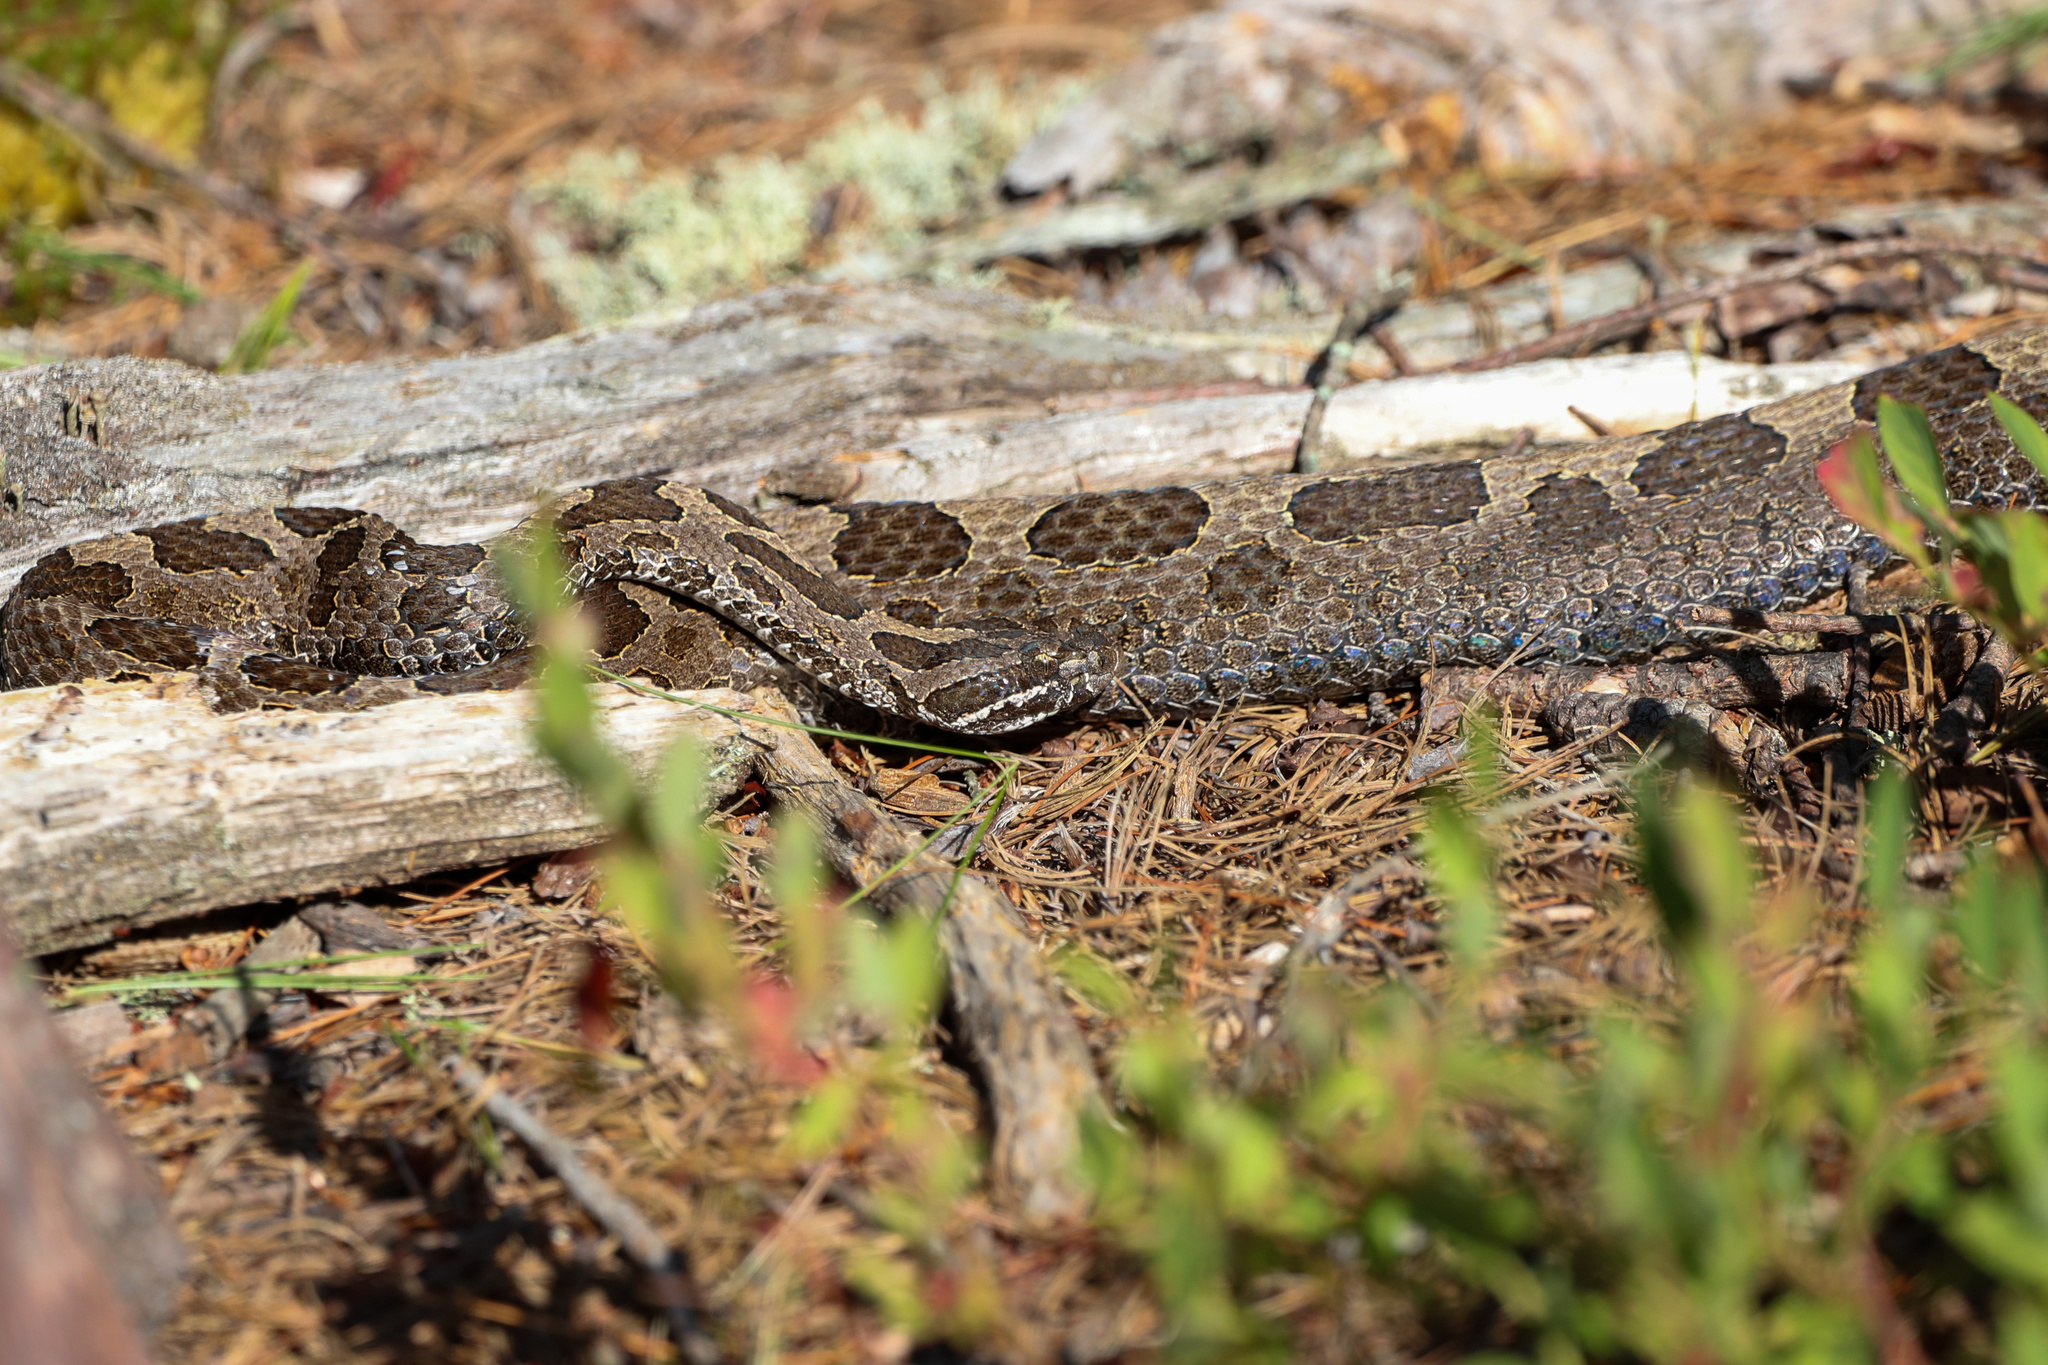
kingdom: Animalia
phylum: Chordata
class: Squamata
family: Viperidae
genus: Sistrurus
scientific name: Sistrurus catenatus
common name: Massasauga
